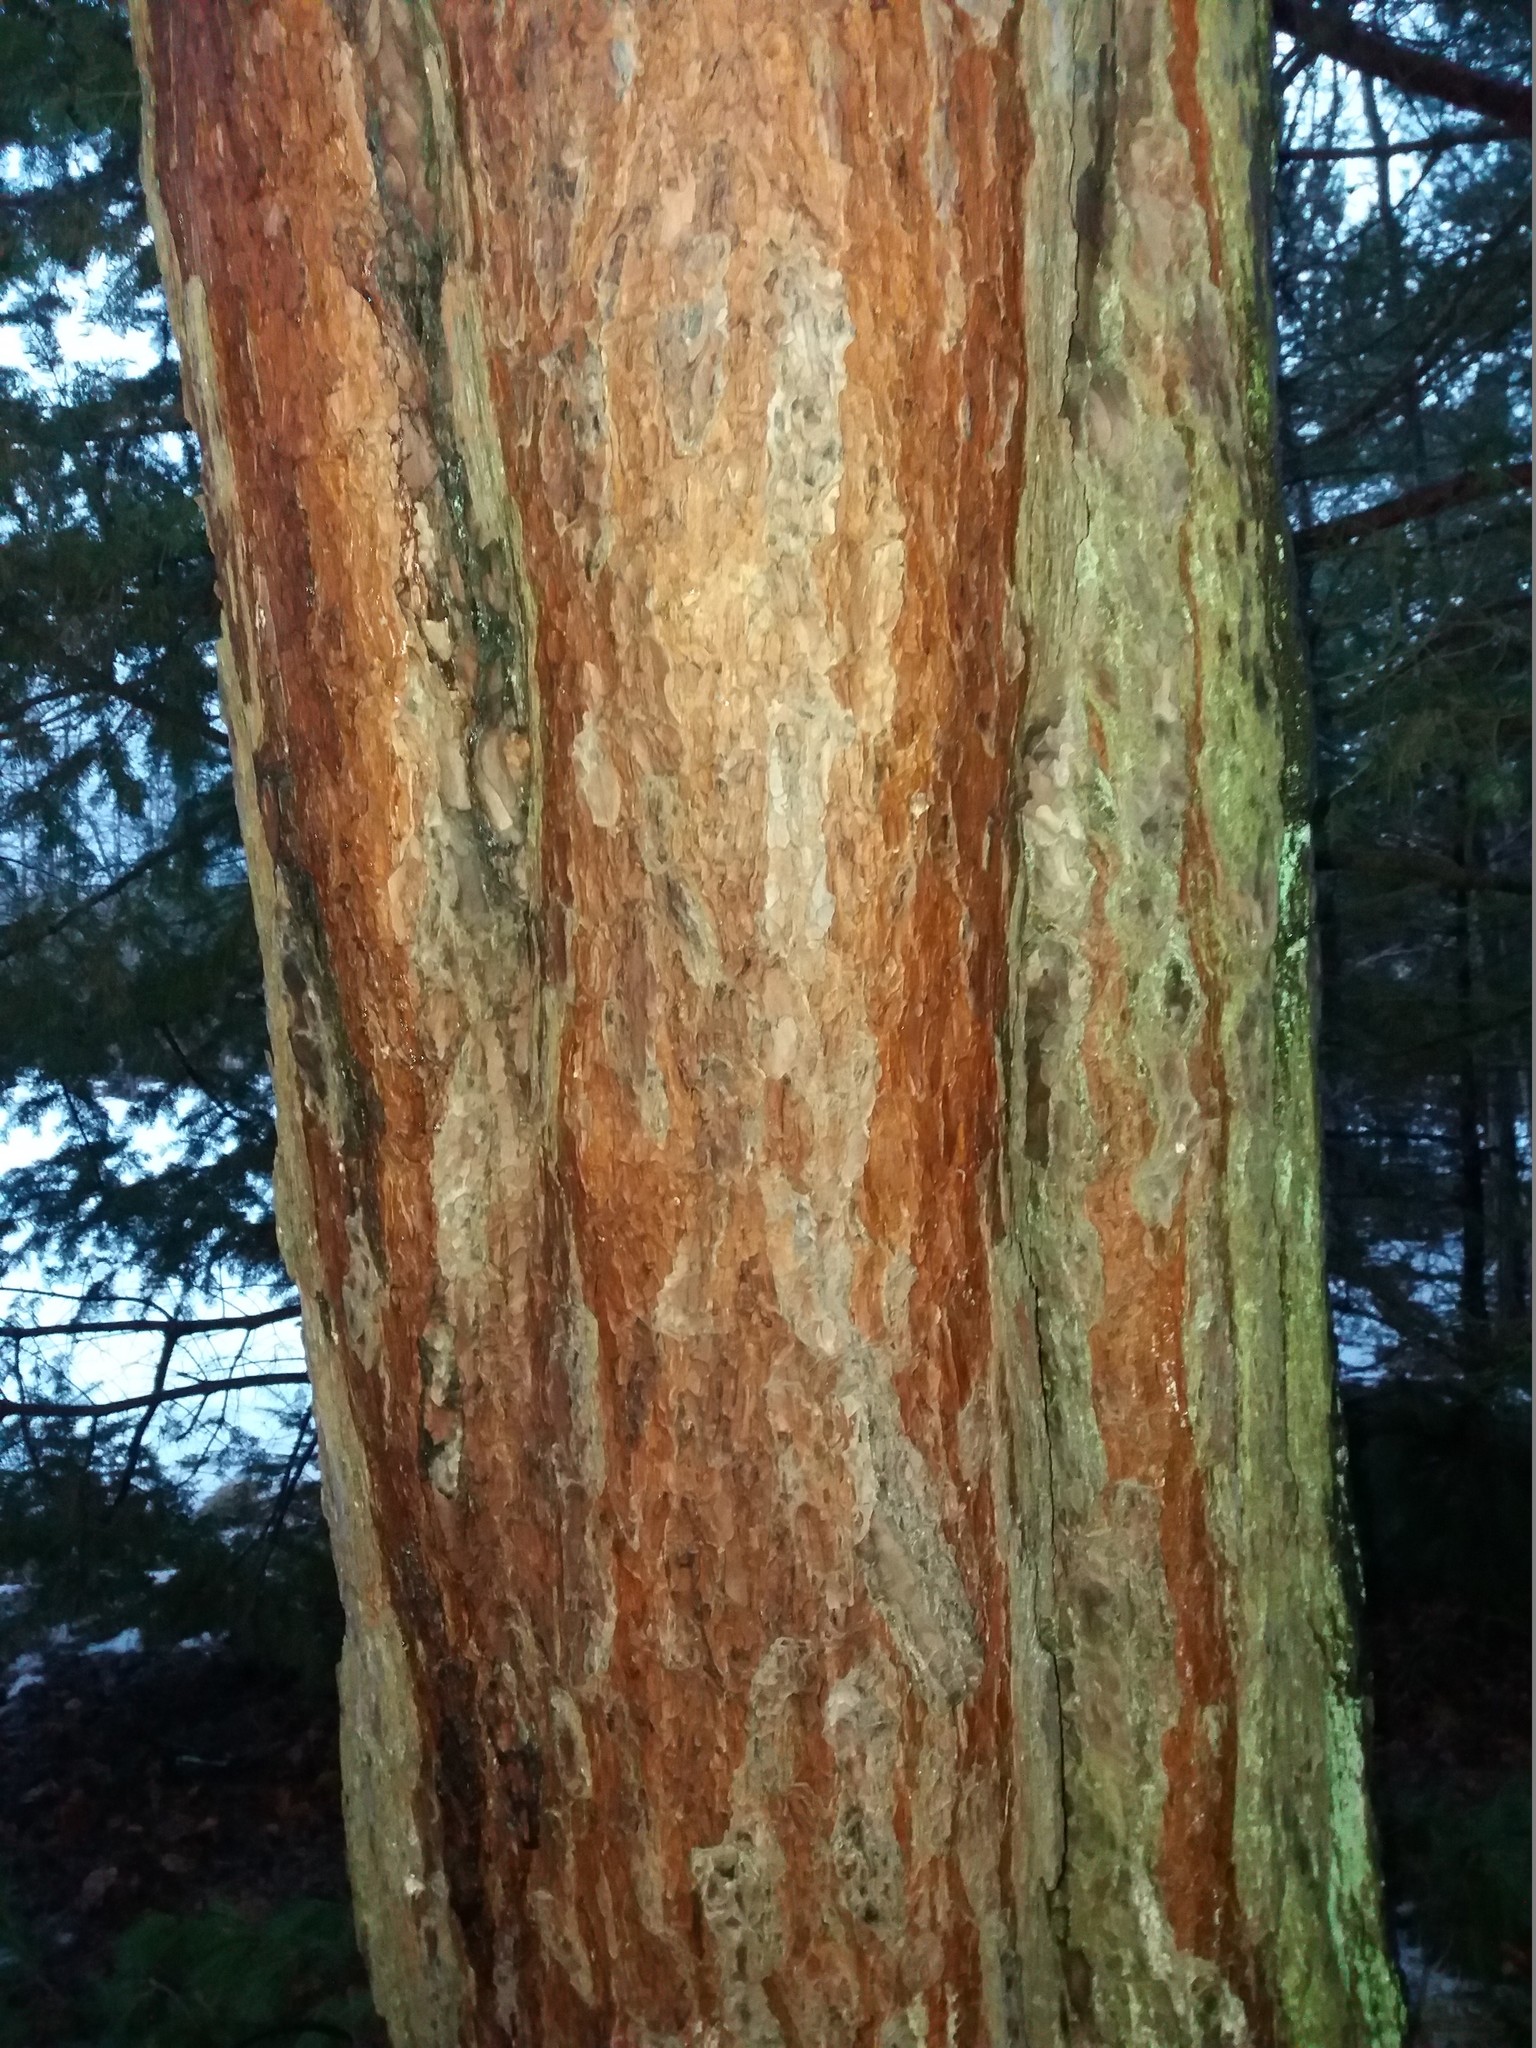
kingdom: Plantae
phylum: Tracheophyta
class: Pinopsida
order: Pinales
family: Pinaceae
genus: Pinus
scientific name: Pinus sylvestris
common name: Scots pine
